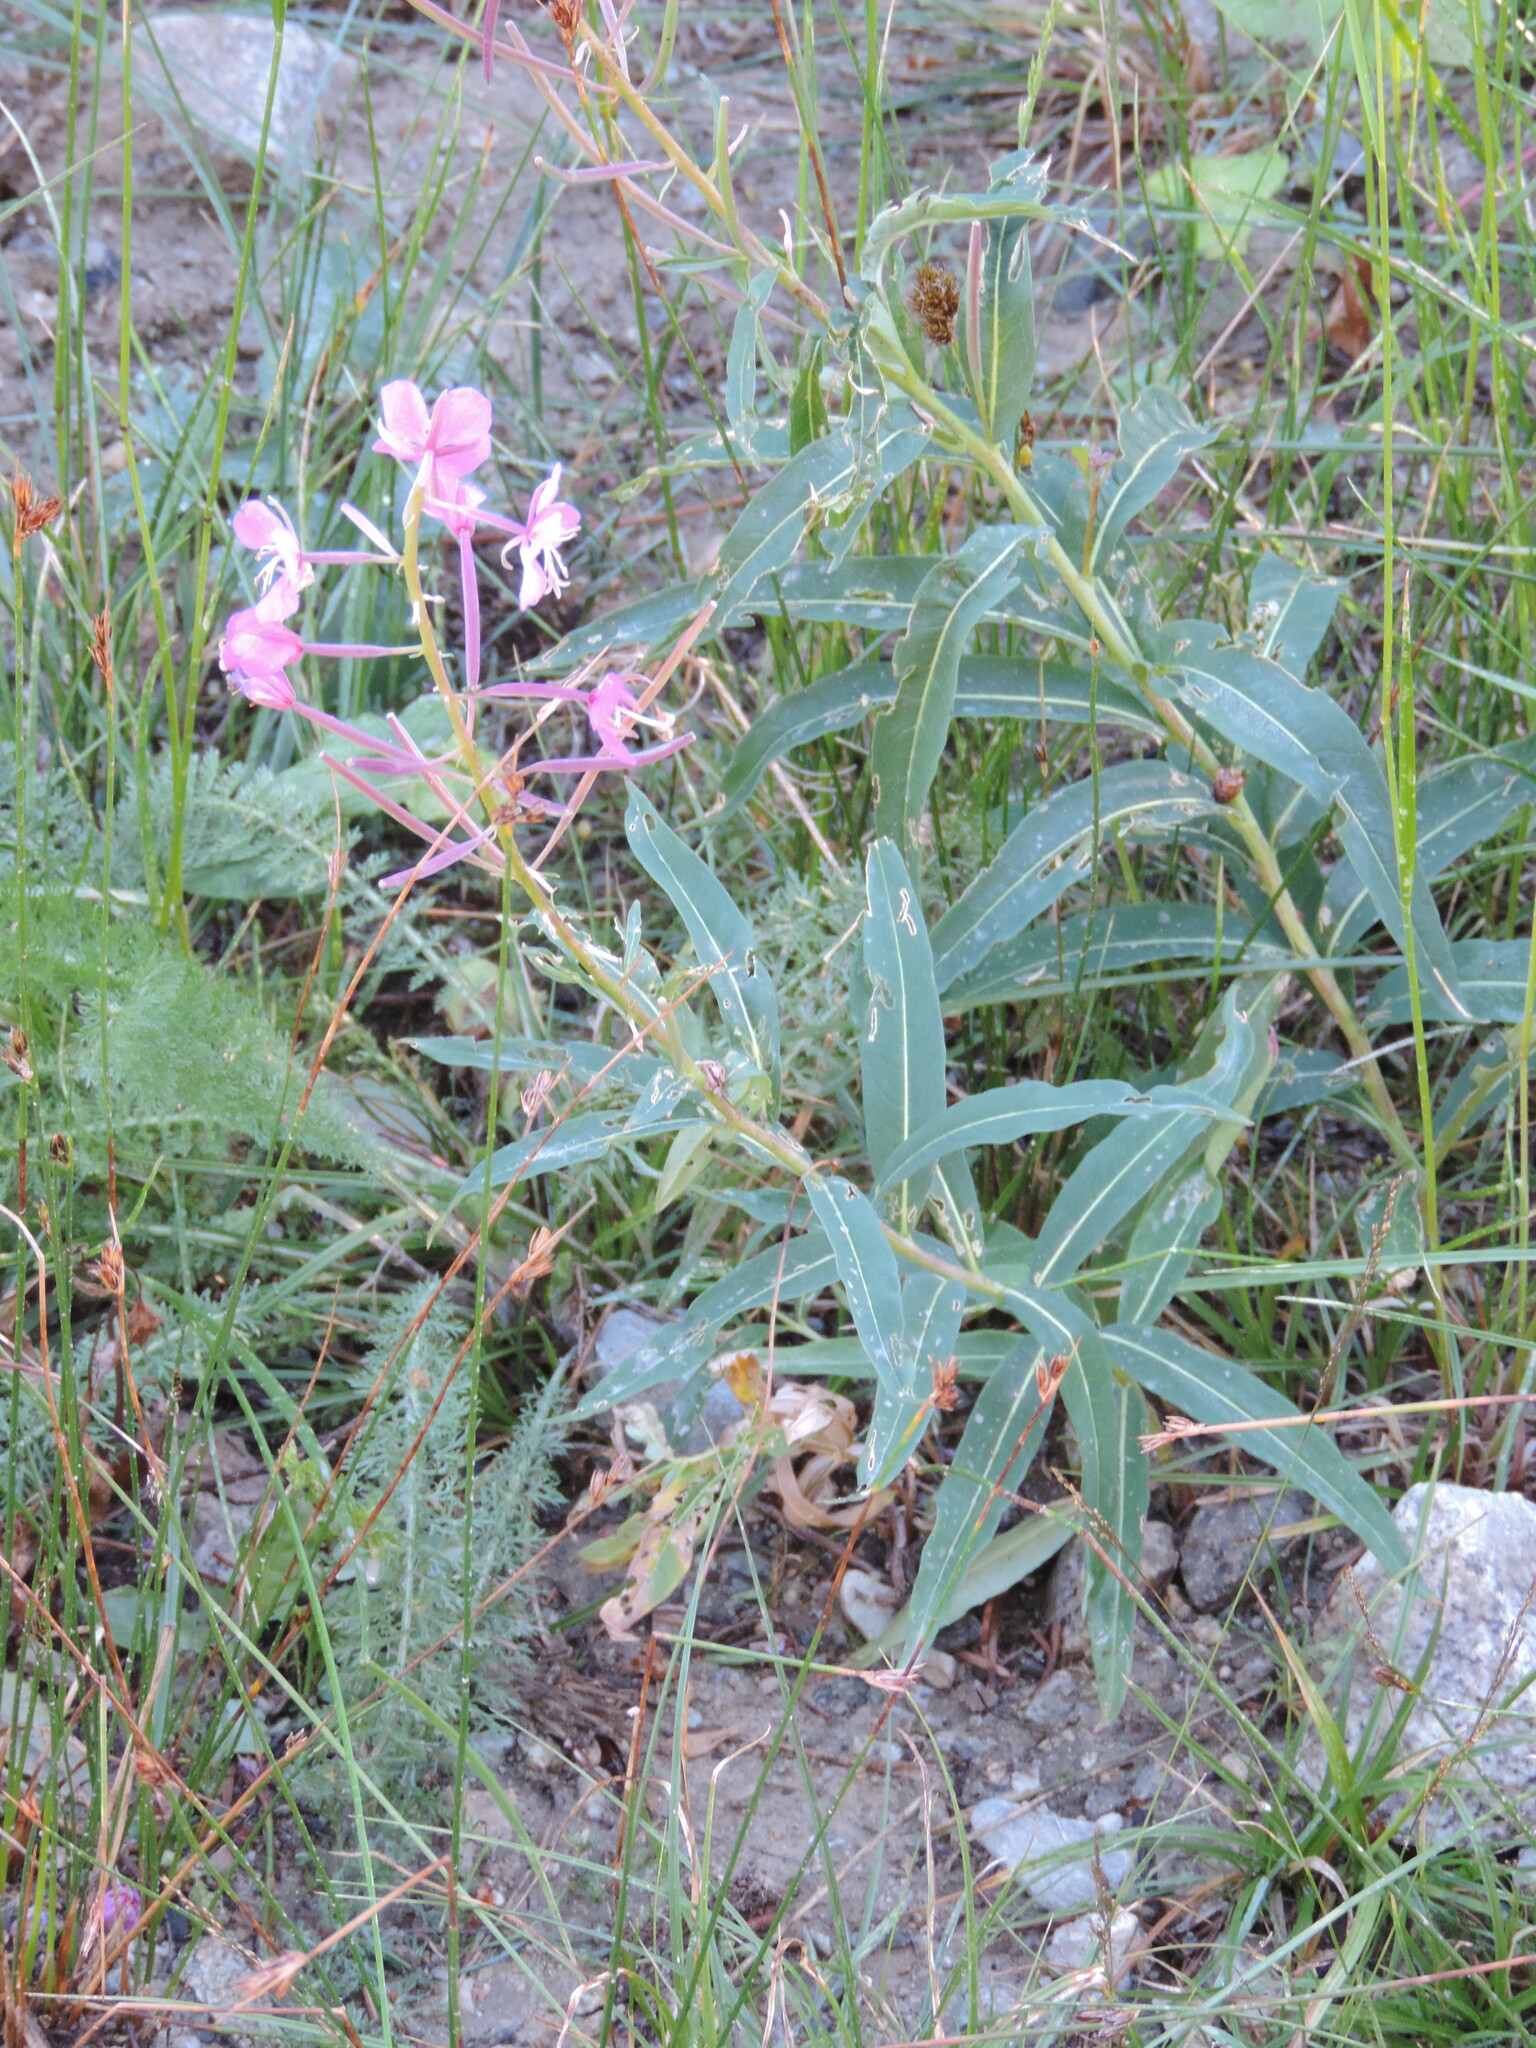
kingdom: Plantae
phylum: Tracheophyta
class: Magnoliopsida
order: Myrtales
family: Onagraceae
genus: Chamaenerion
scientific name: Chamaenerion angustifolium
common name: Fireweed
